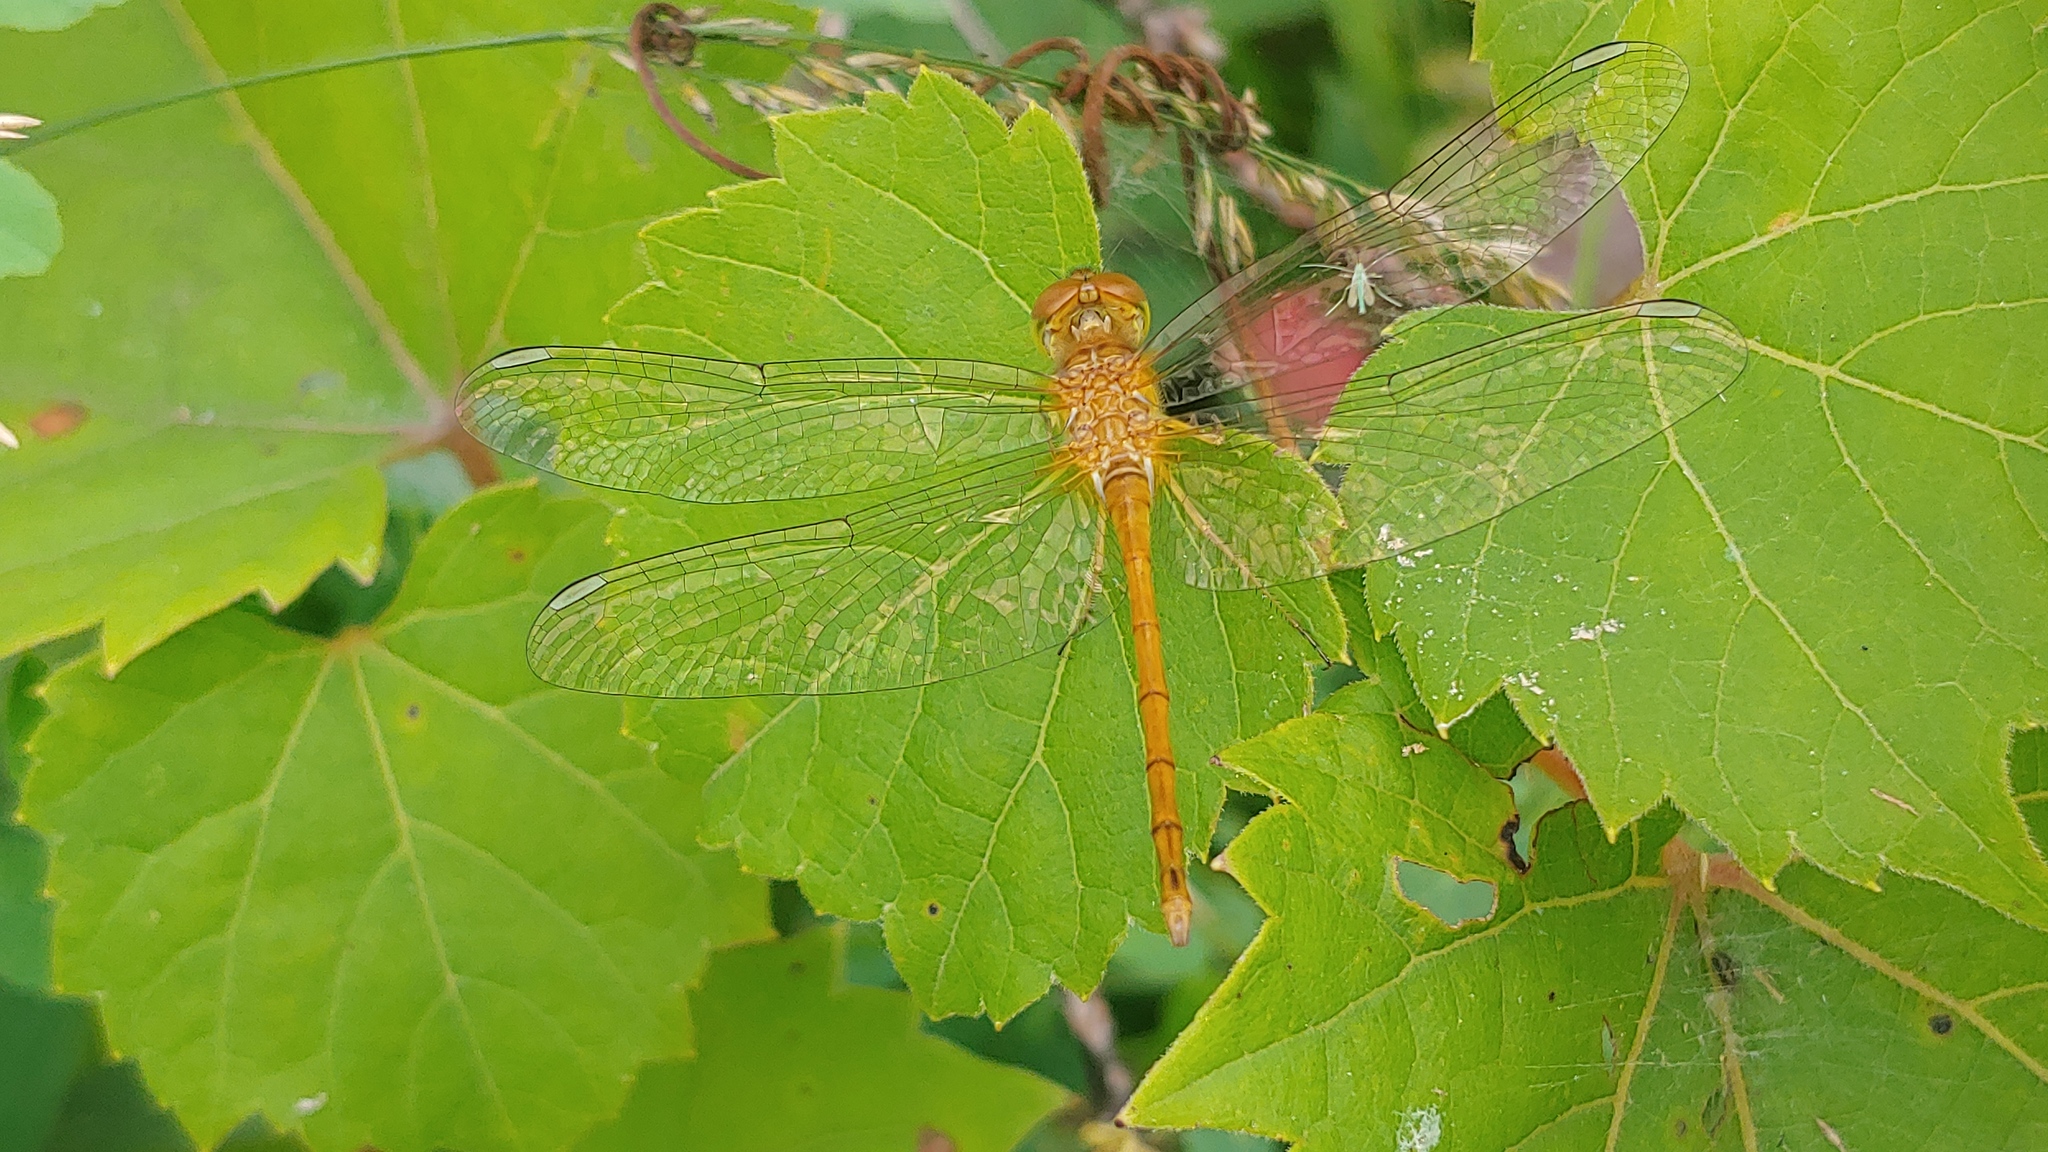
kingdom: Animalia
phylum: Arthropoda
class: Insecta
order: Odonata
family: Libellulidae
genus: Sympetrum
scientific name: Sympetrum vicinum
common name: Autumn meadowhawk
